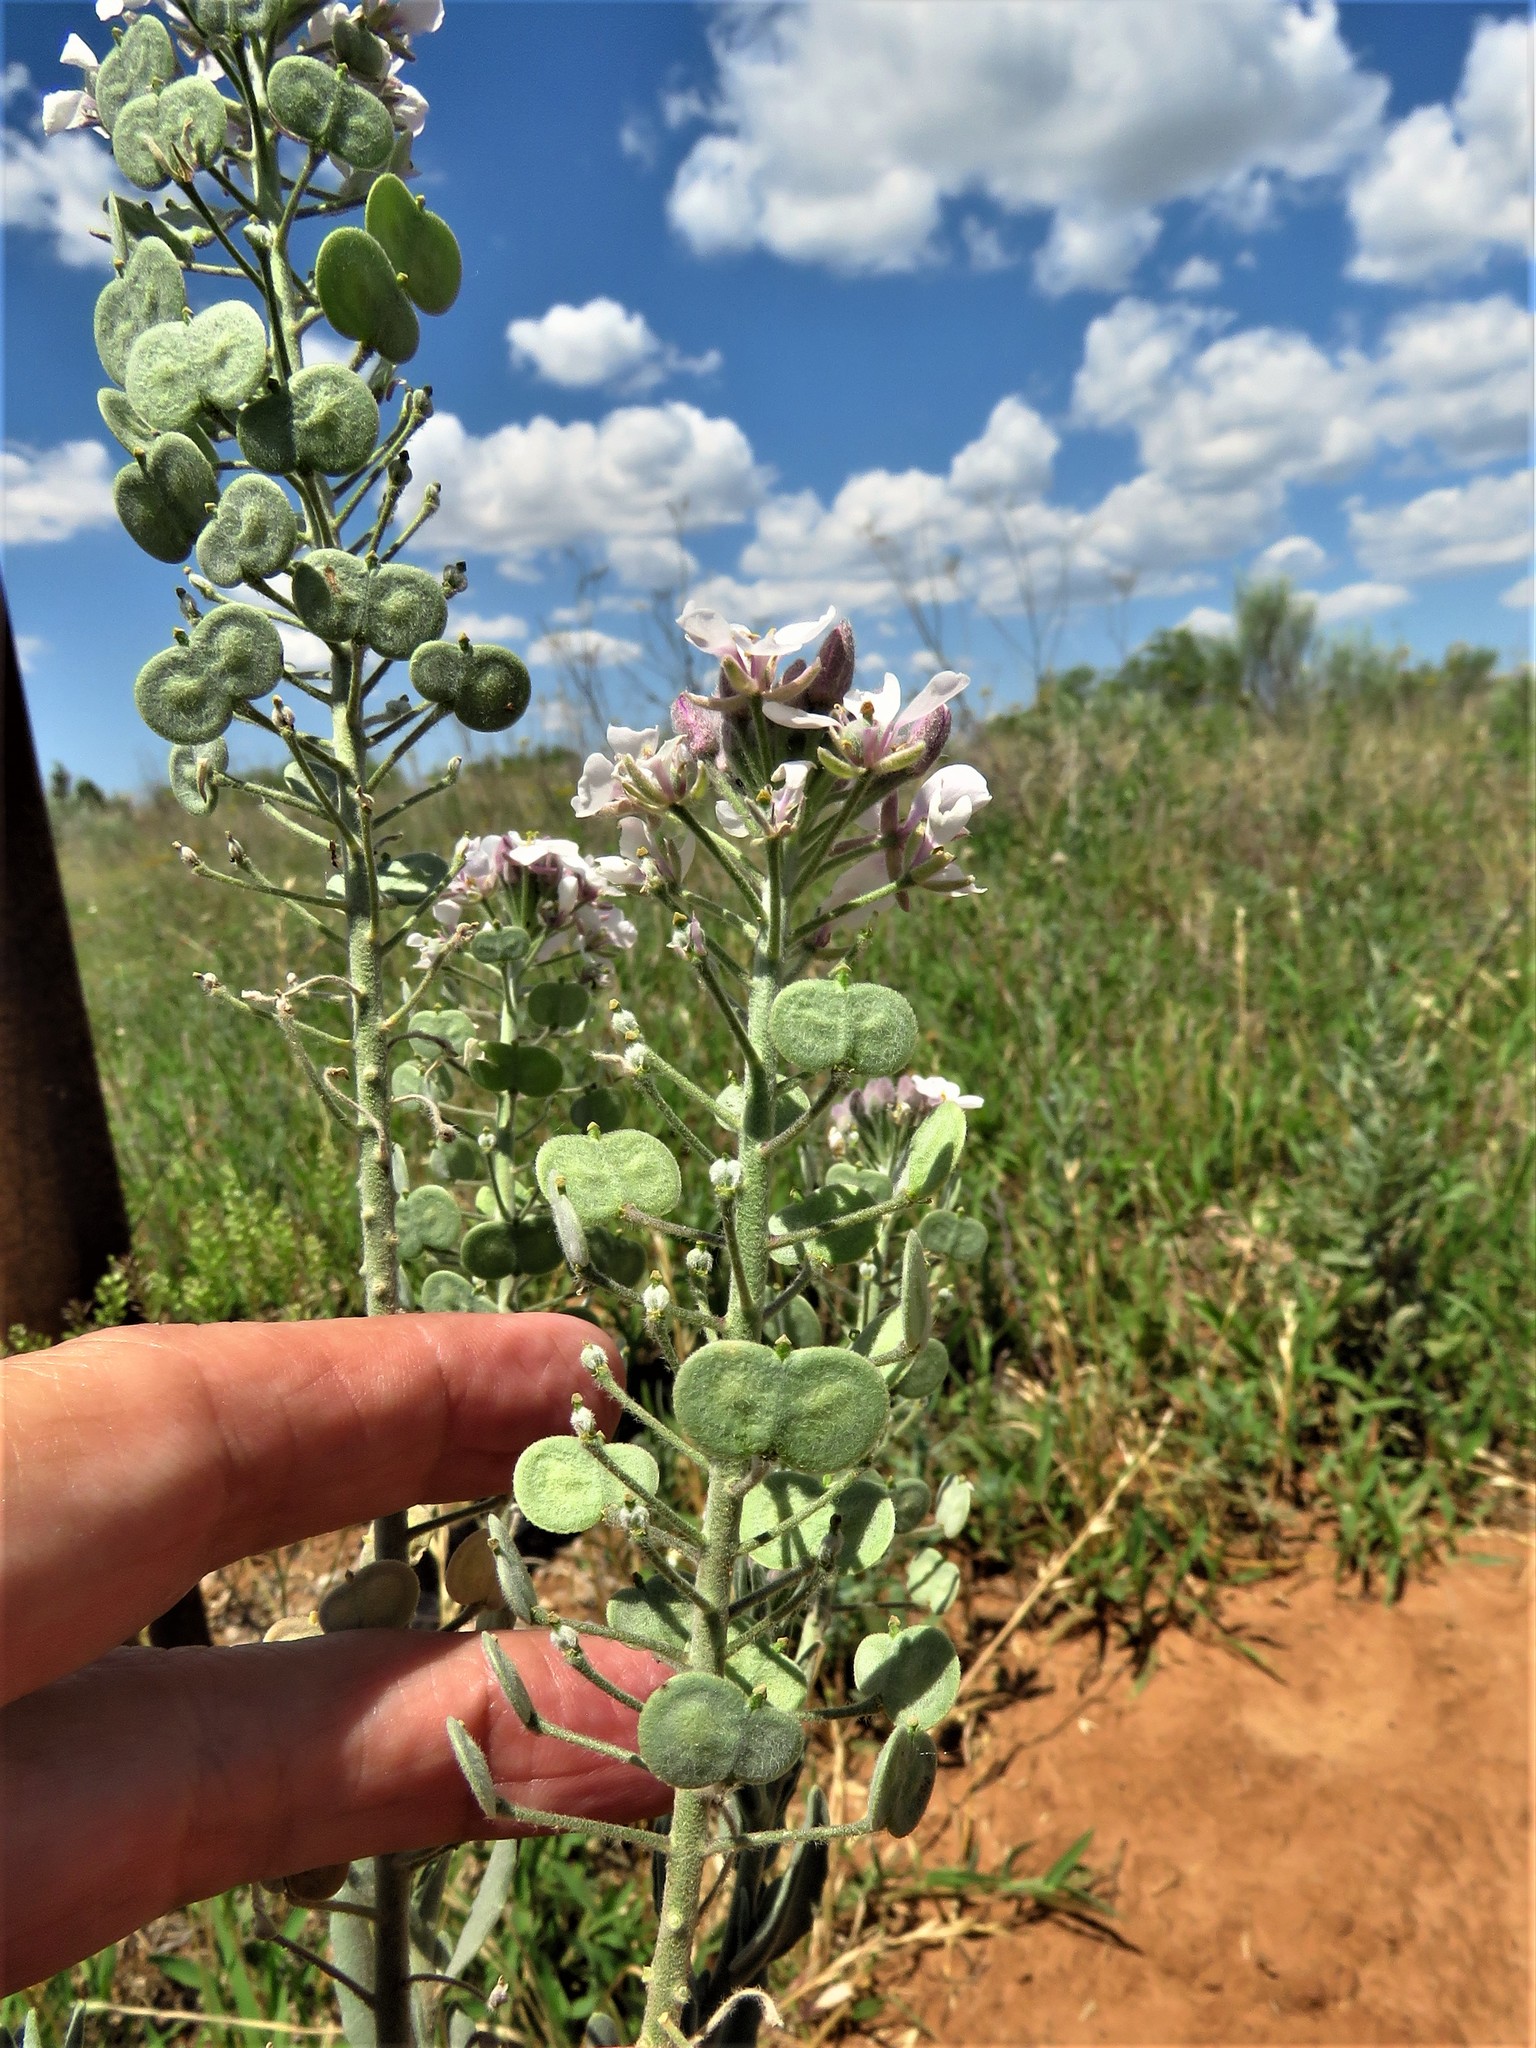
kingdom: Plantae
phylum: Tracheophyta
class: Magnoliopsida
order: Brassicales
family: Brassicaceae
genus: Dimorphocarpa
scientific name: Dimorphocarpa candicans
